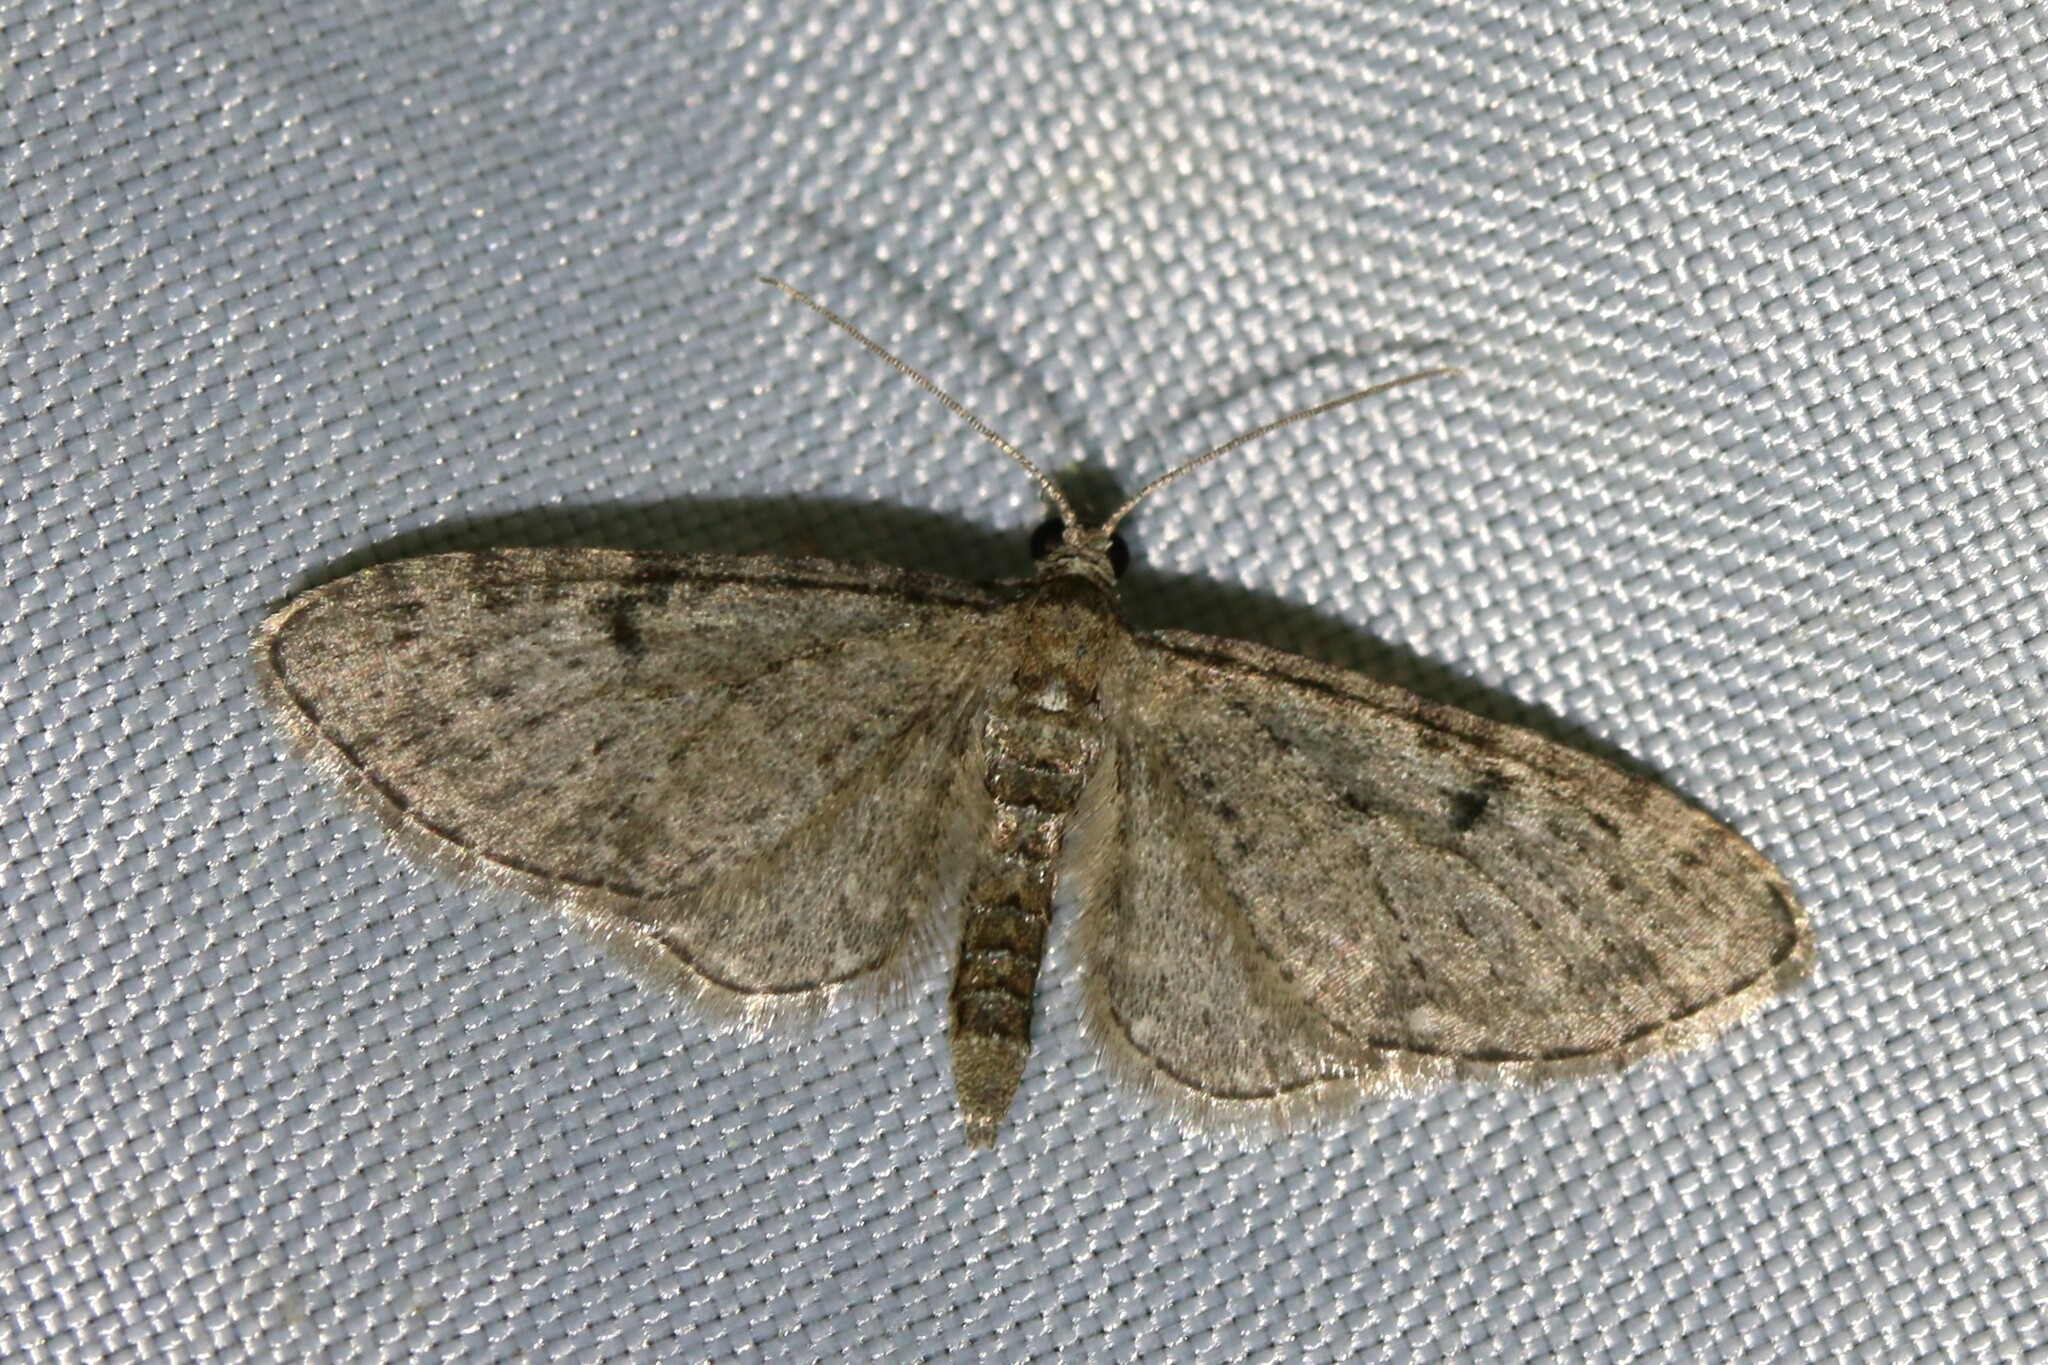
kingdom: Animalia
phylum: Arthropoda
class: Insecta
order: Lepidoptera
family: Geometridae
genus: Eupithecia
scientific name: Eupithecia virgaureata
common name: Golden-rod pug
